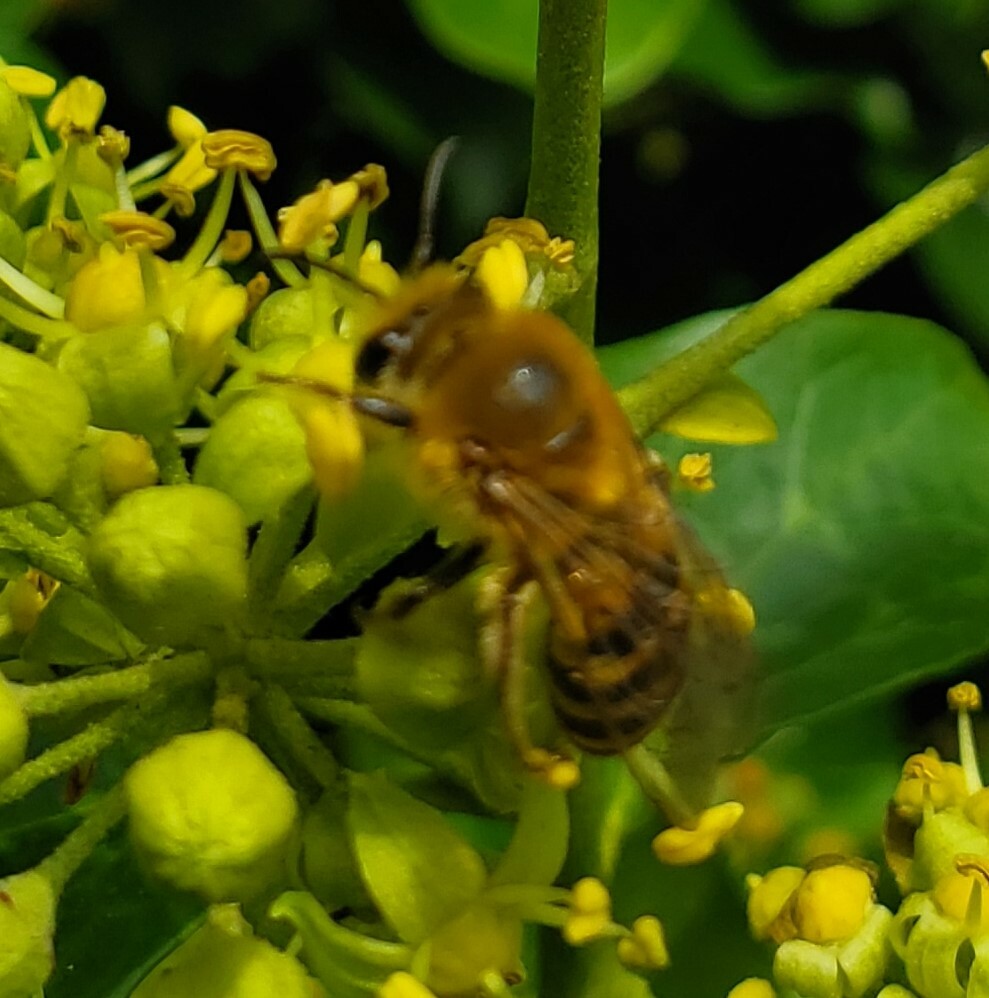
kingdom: Animalia
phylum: Arthropoda
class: Insecta
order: Hymenoptera
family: Colletidae
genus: Colletes
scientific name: Colletes hederae
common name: Ivy bee
